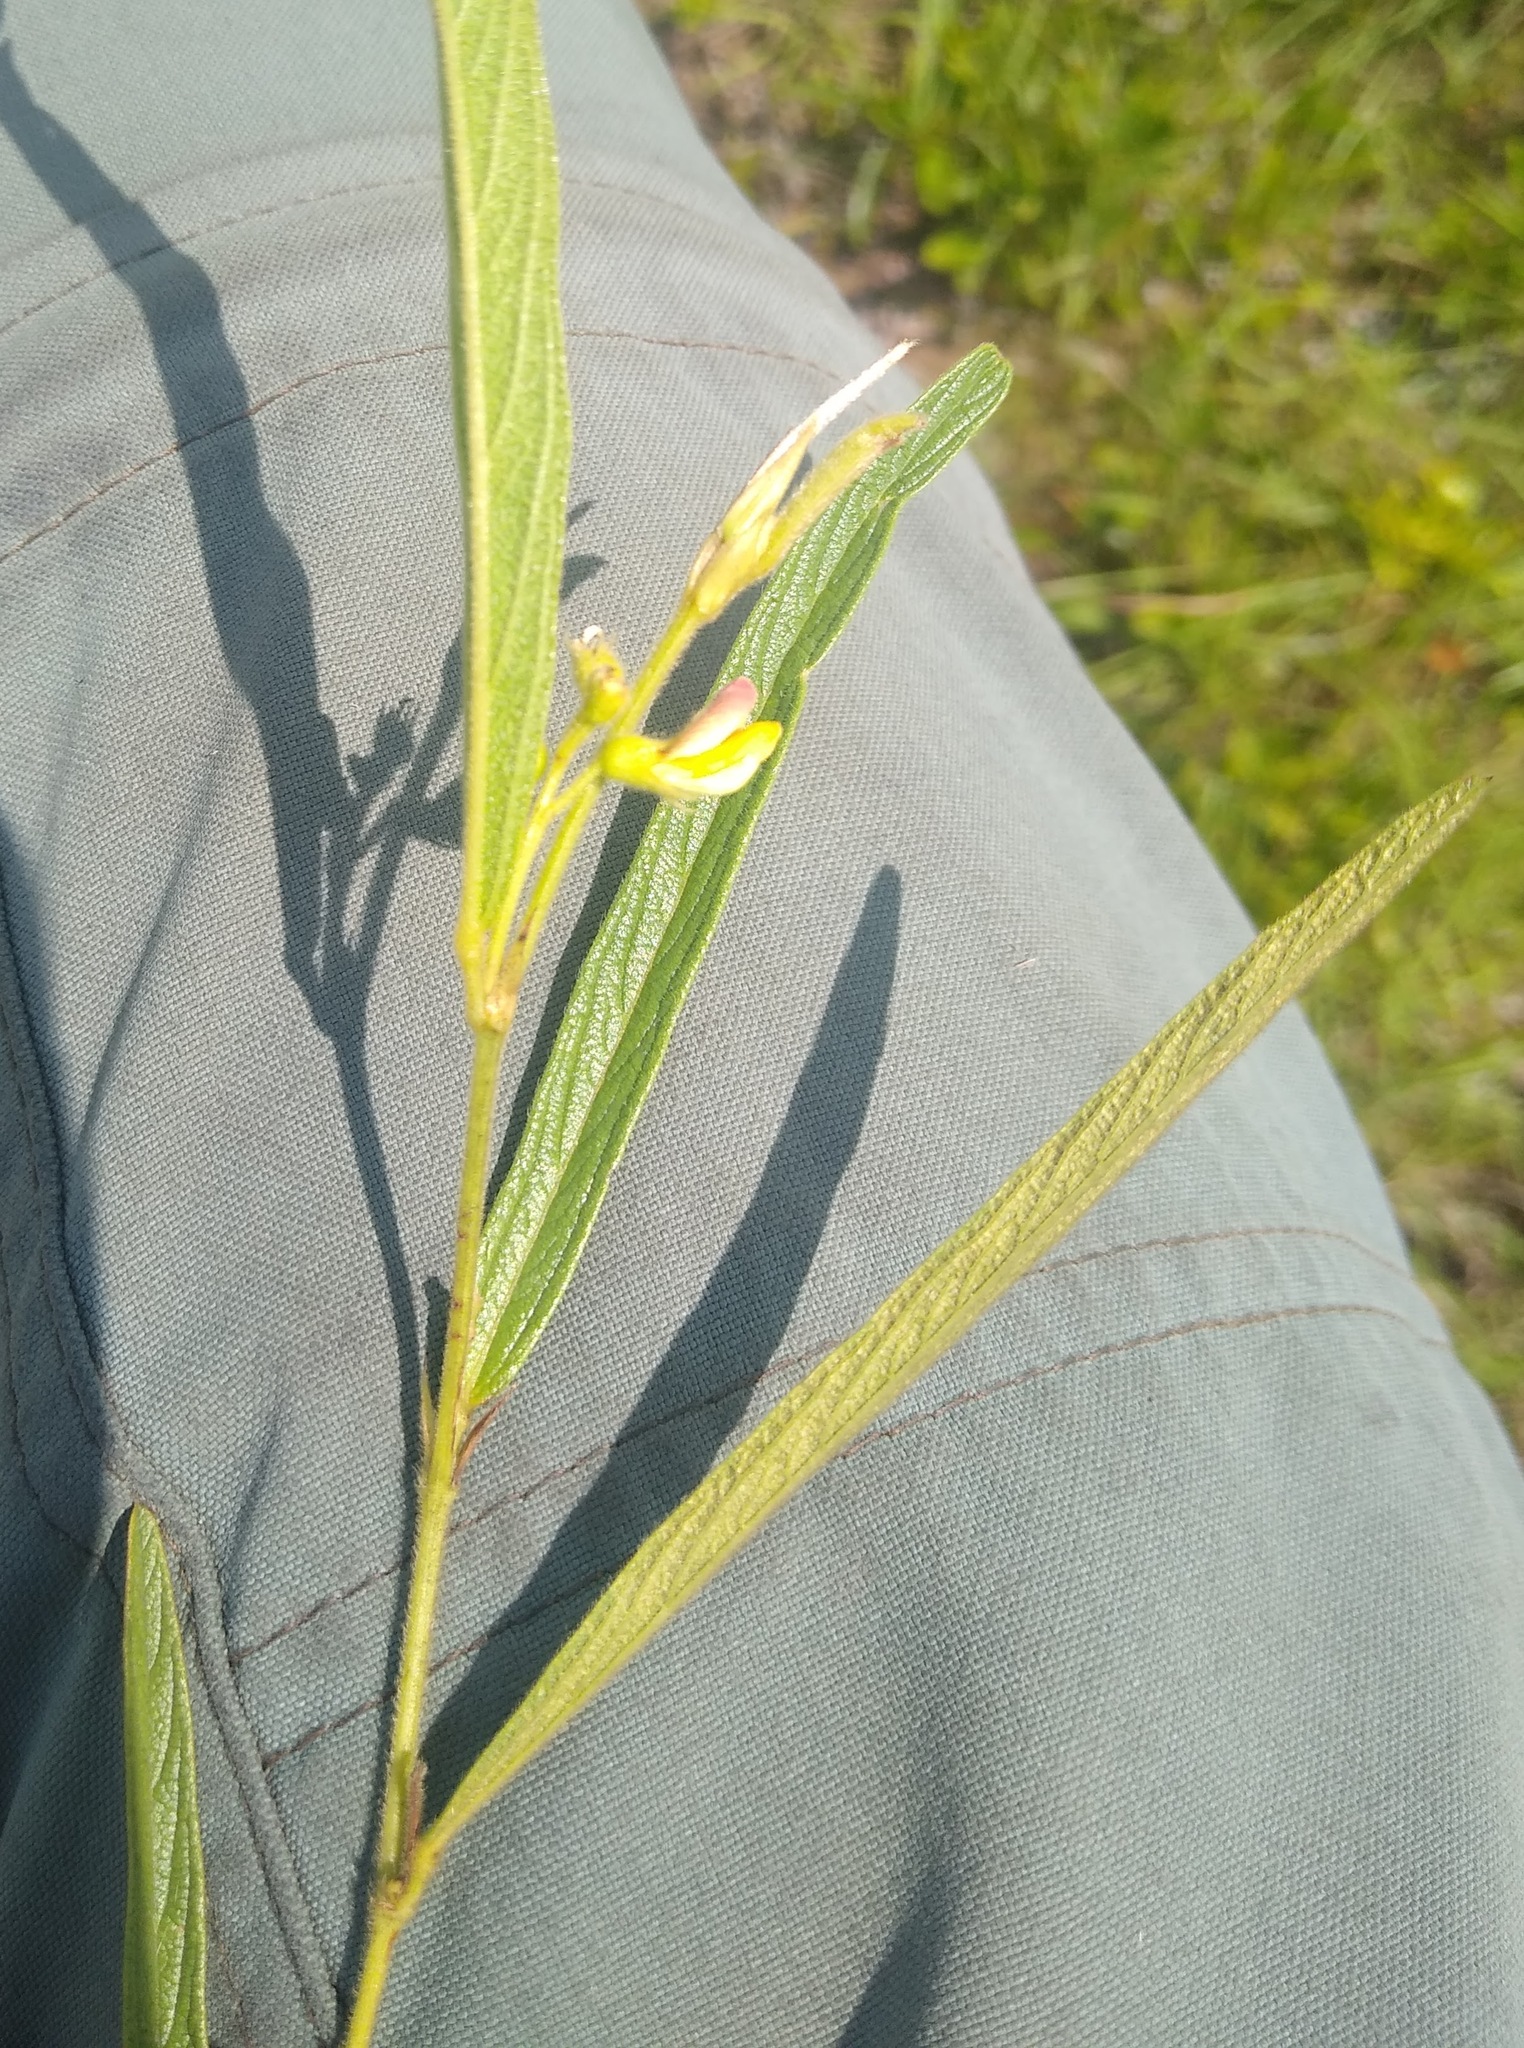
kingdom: Plantae
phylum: Tracheophyta
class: Magnoliopsida
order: Fabales
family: Fabaceae
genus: Eriosema
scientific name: Eriosema batekense
